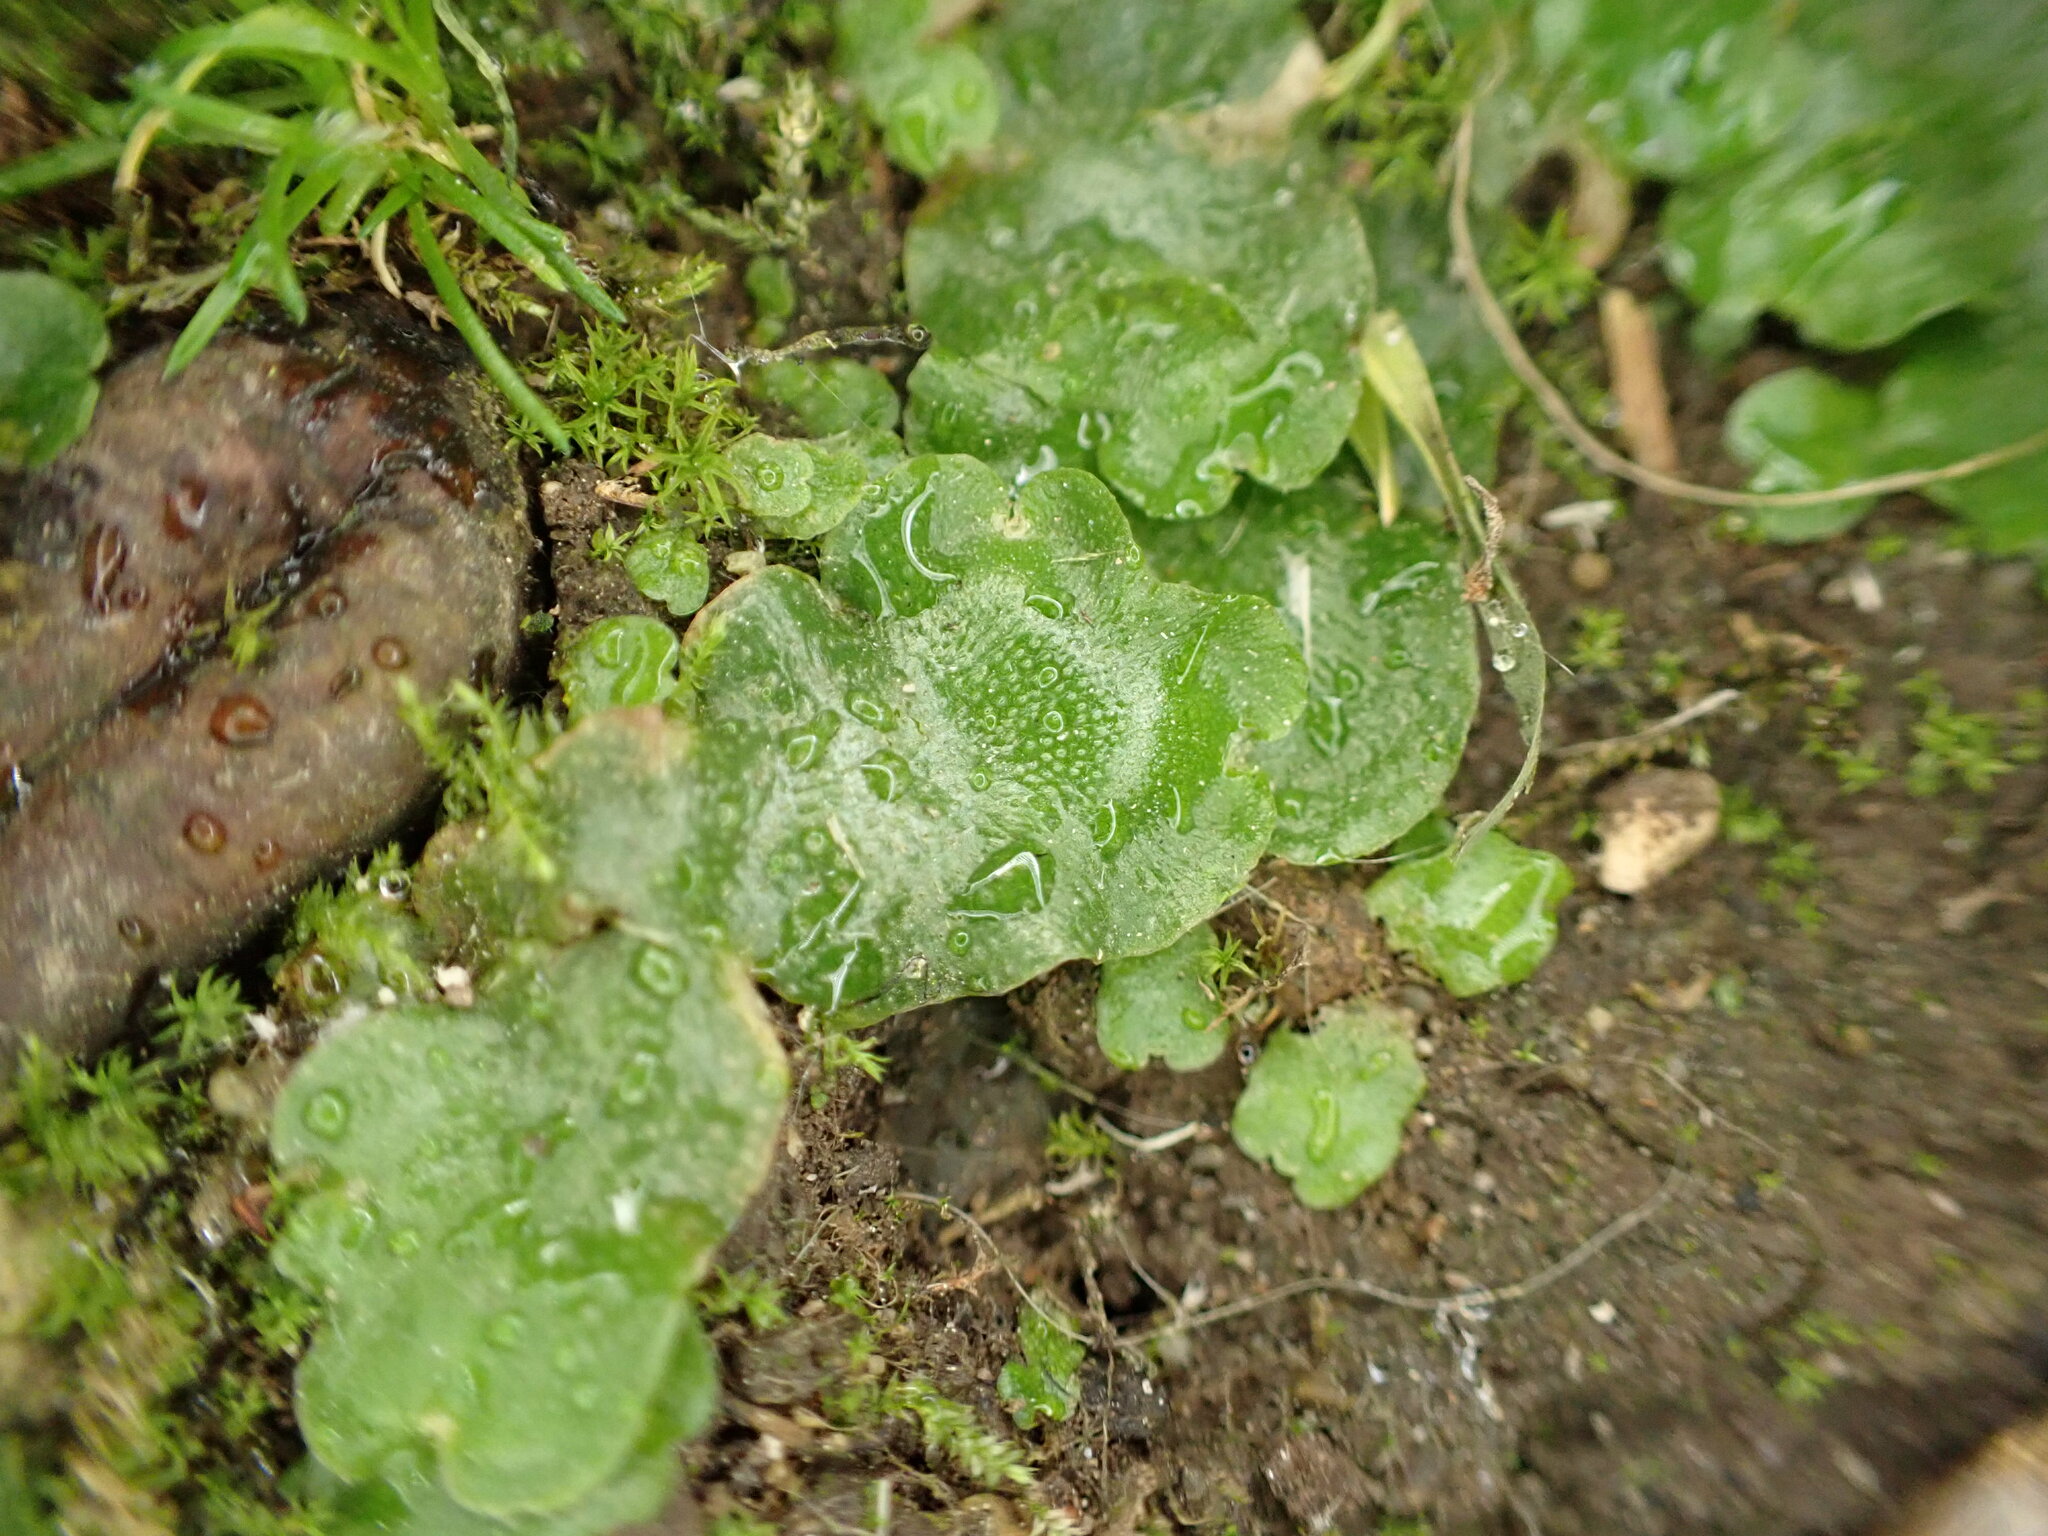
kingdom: Plantae
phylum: Marchantiophyta
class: Marchantiopsida
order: Lunulariales
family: Lunulariaceae
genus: Lunularia
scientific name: Lunularia cruciata
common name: Crescent-cup liverwort
